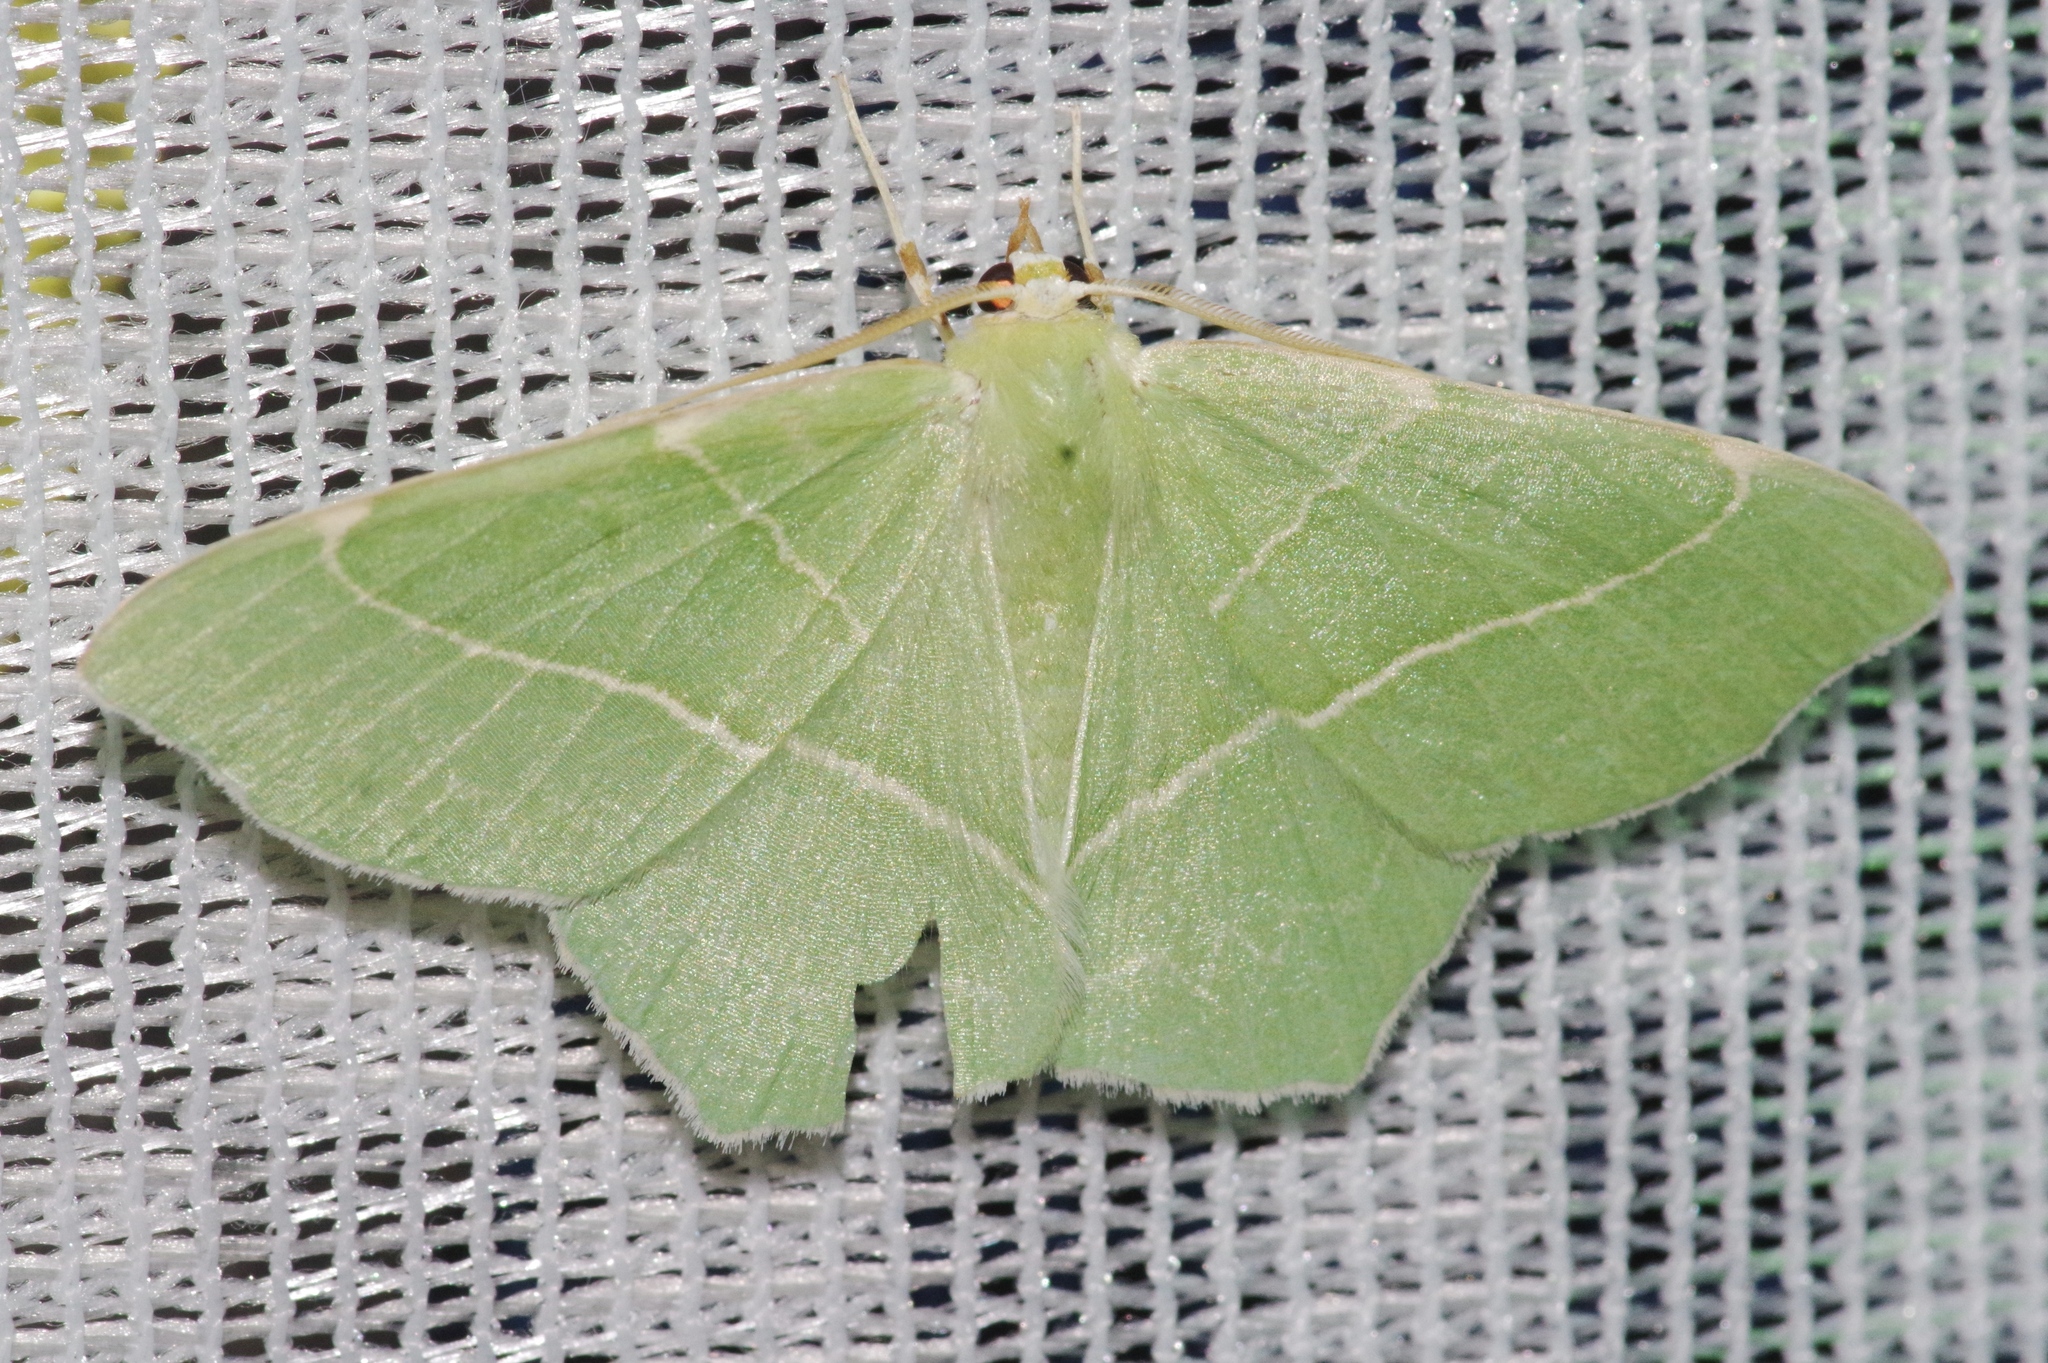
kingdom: Animalia
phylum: Arthropoda
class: Insecta
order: Lepidoptera
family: Geometridae
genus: Geometra
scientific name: Geometra dieckmanni
